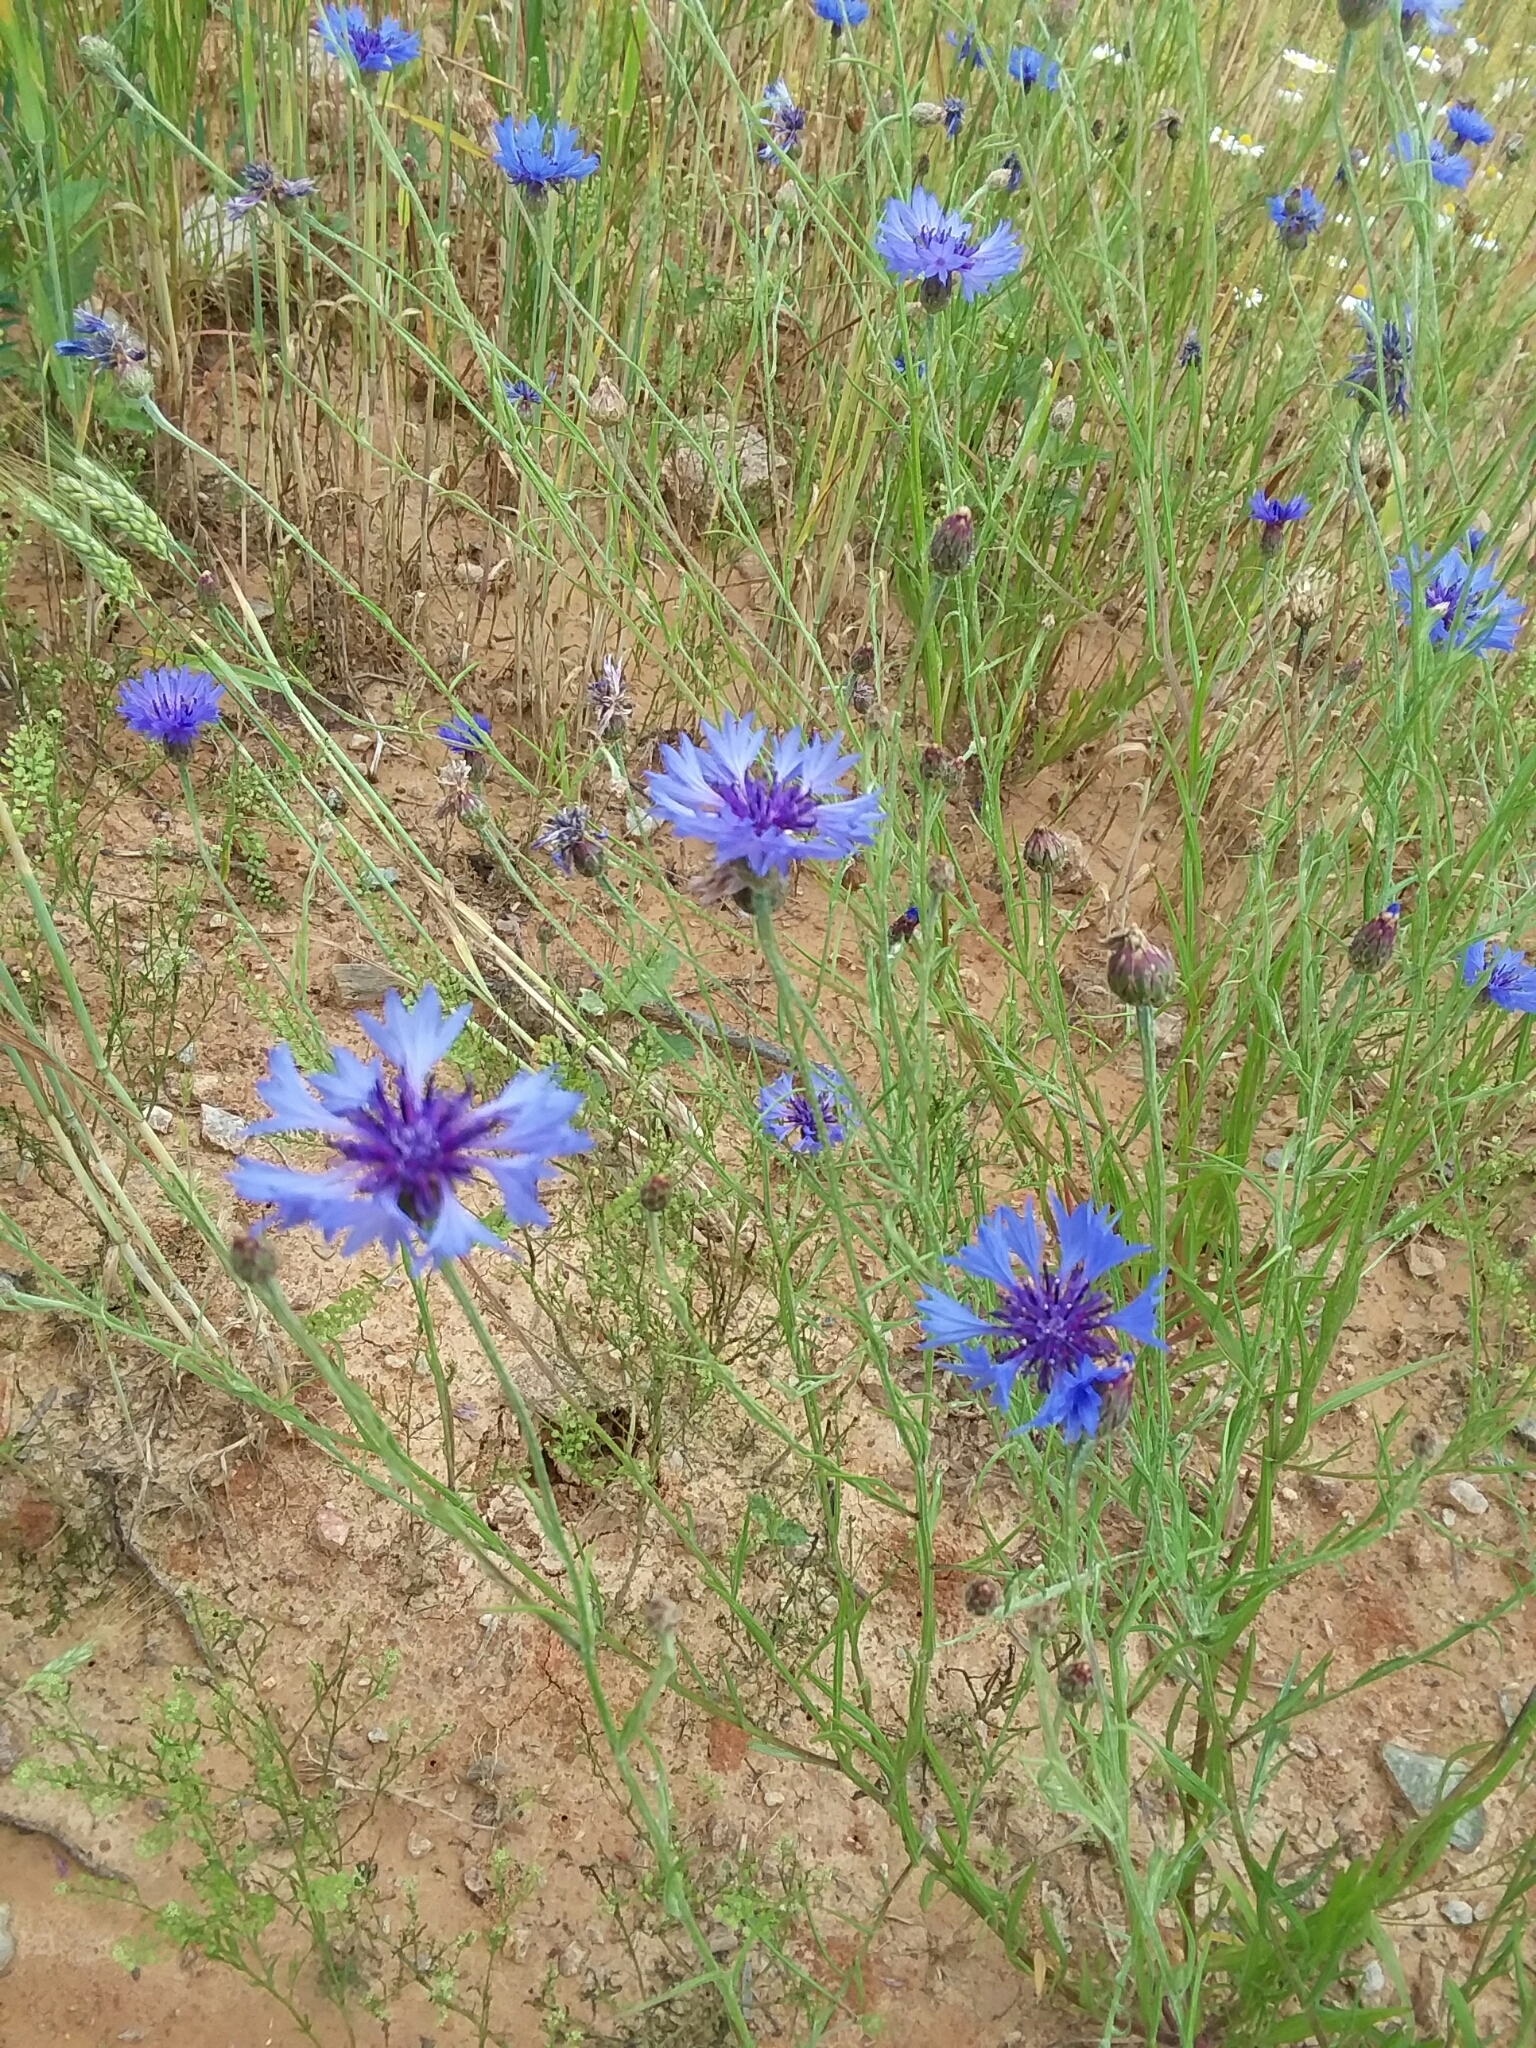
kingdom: Plantae
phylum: Tracheophyta
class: Magnoliopsida
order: Asterales
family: Asteraceae
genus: Centaurea
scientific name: Centaurea cyanus
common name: Cornflower
